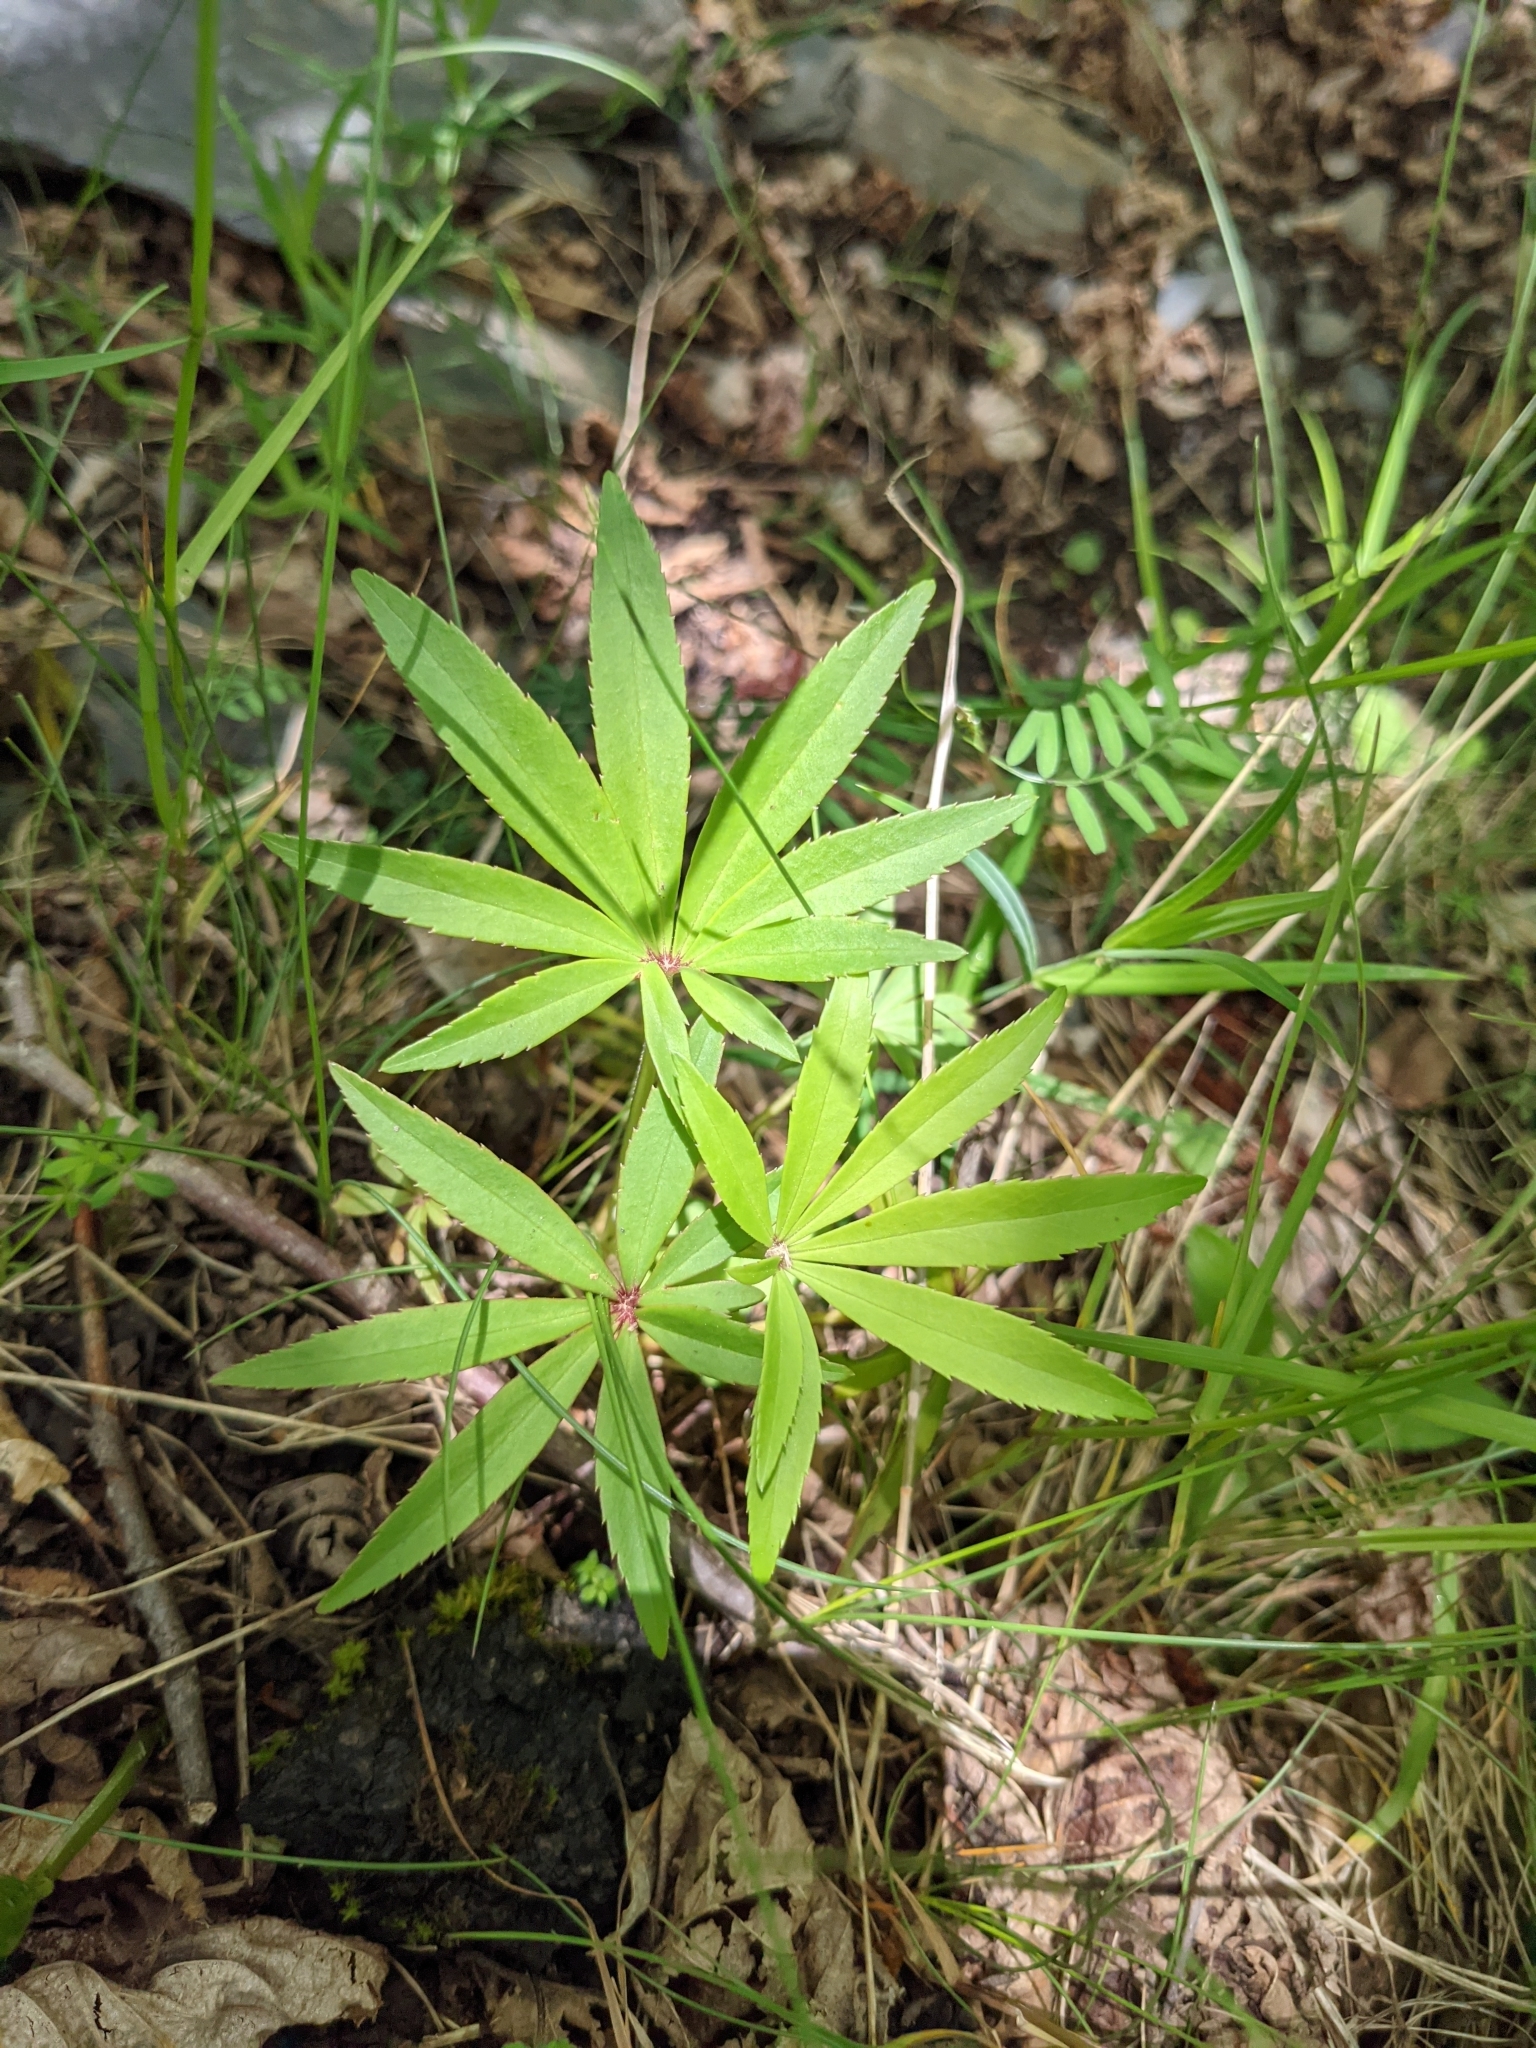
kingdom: Plantae
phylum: Tracheophyta
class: Magnoliopsida
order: Ranunculales
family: Ranunculaceae
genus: Helleborus
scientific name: Helleborus foetidus
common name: Stinking hellebore
